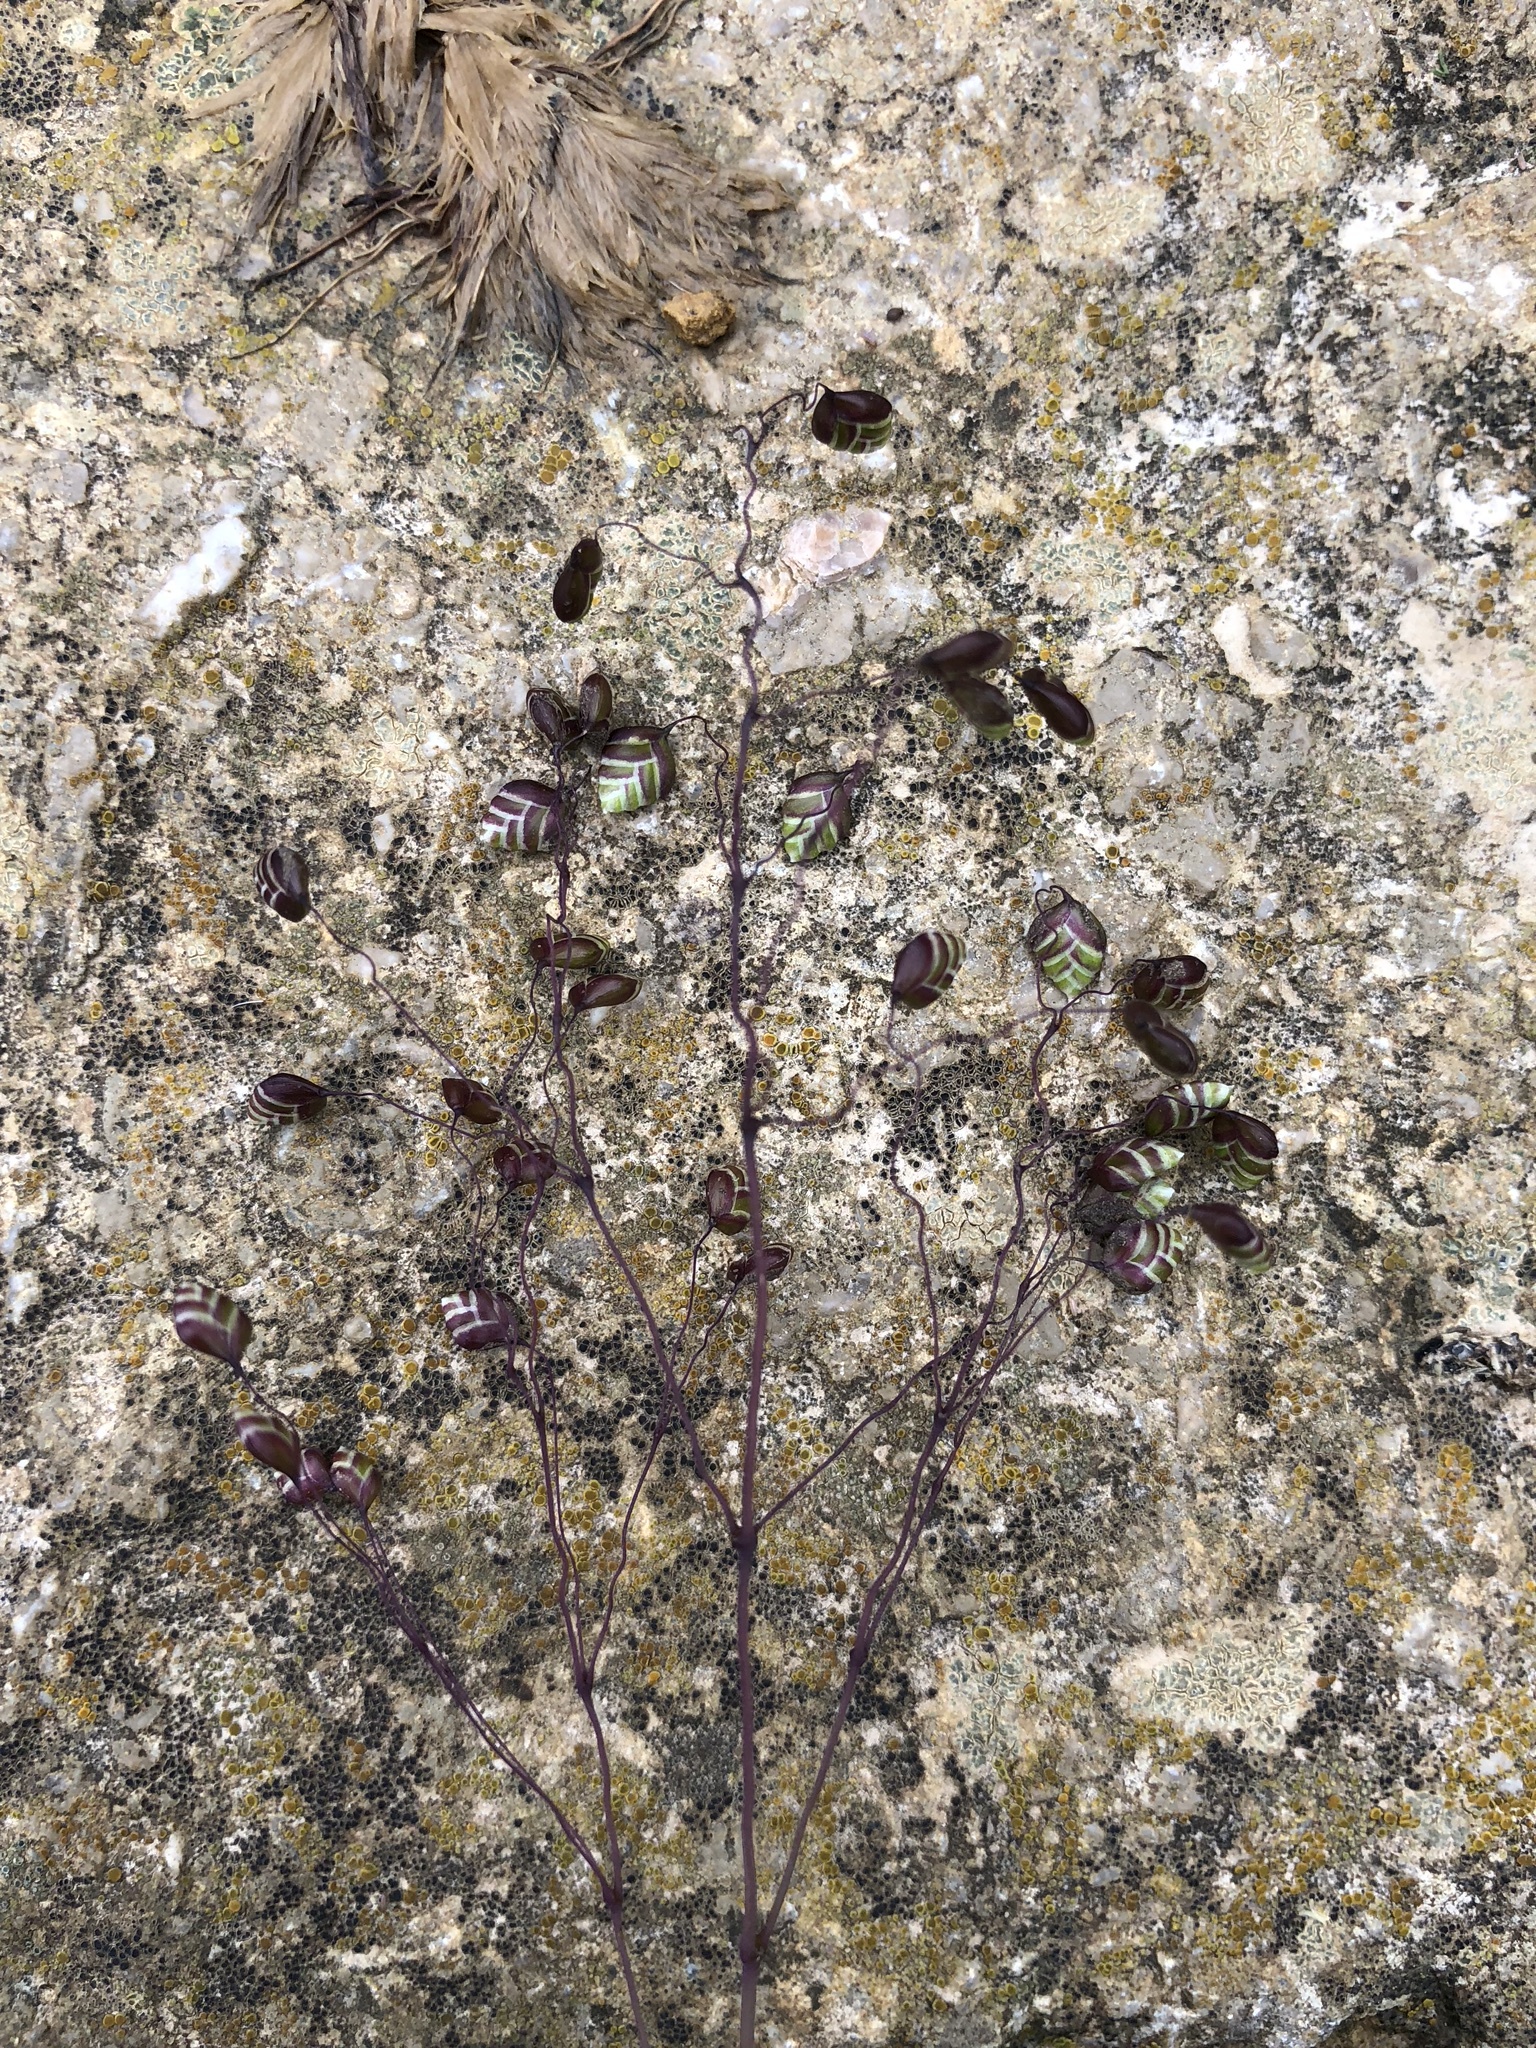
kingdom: Plantae
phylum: Tracheophyta
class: Liliopsida
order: Poales
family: Poaceae
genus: Briza
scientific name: Briza media
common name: Quaking grass
